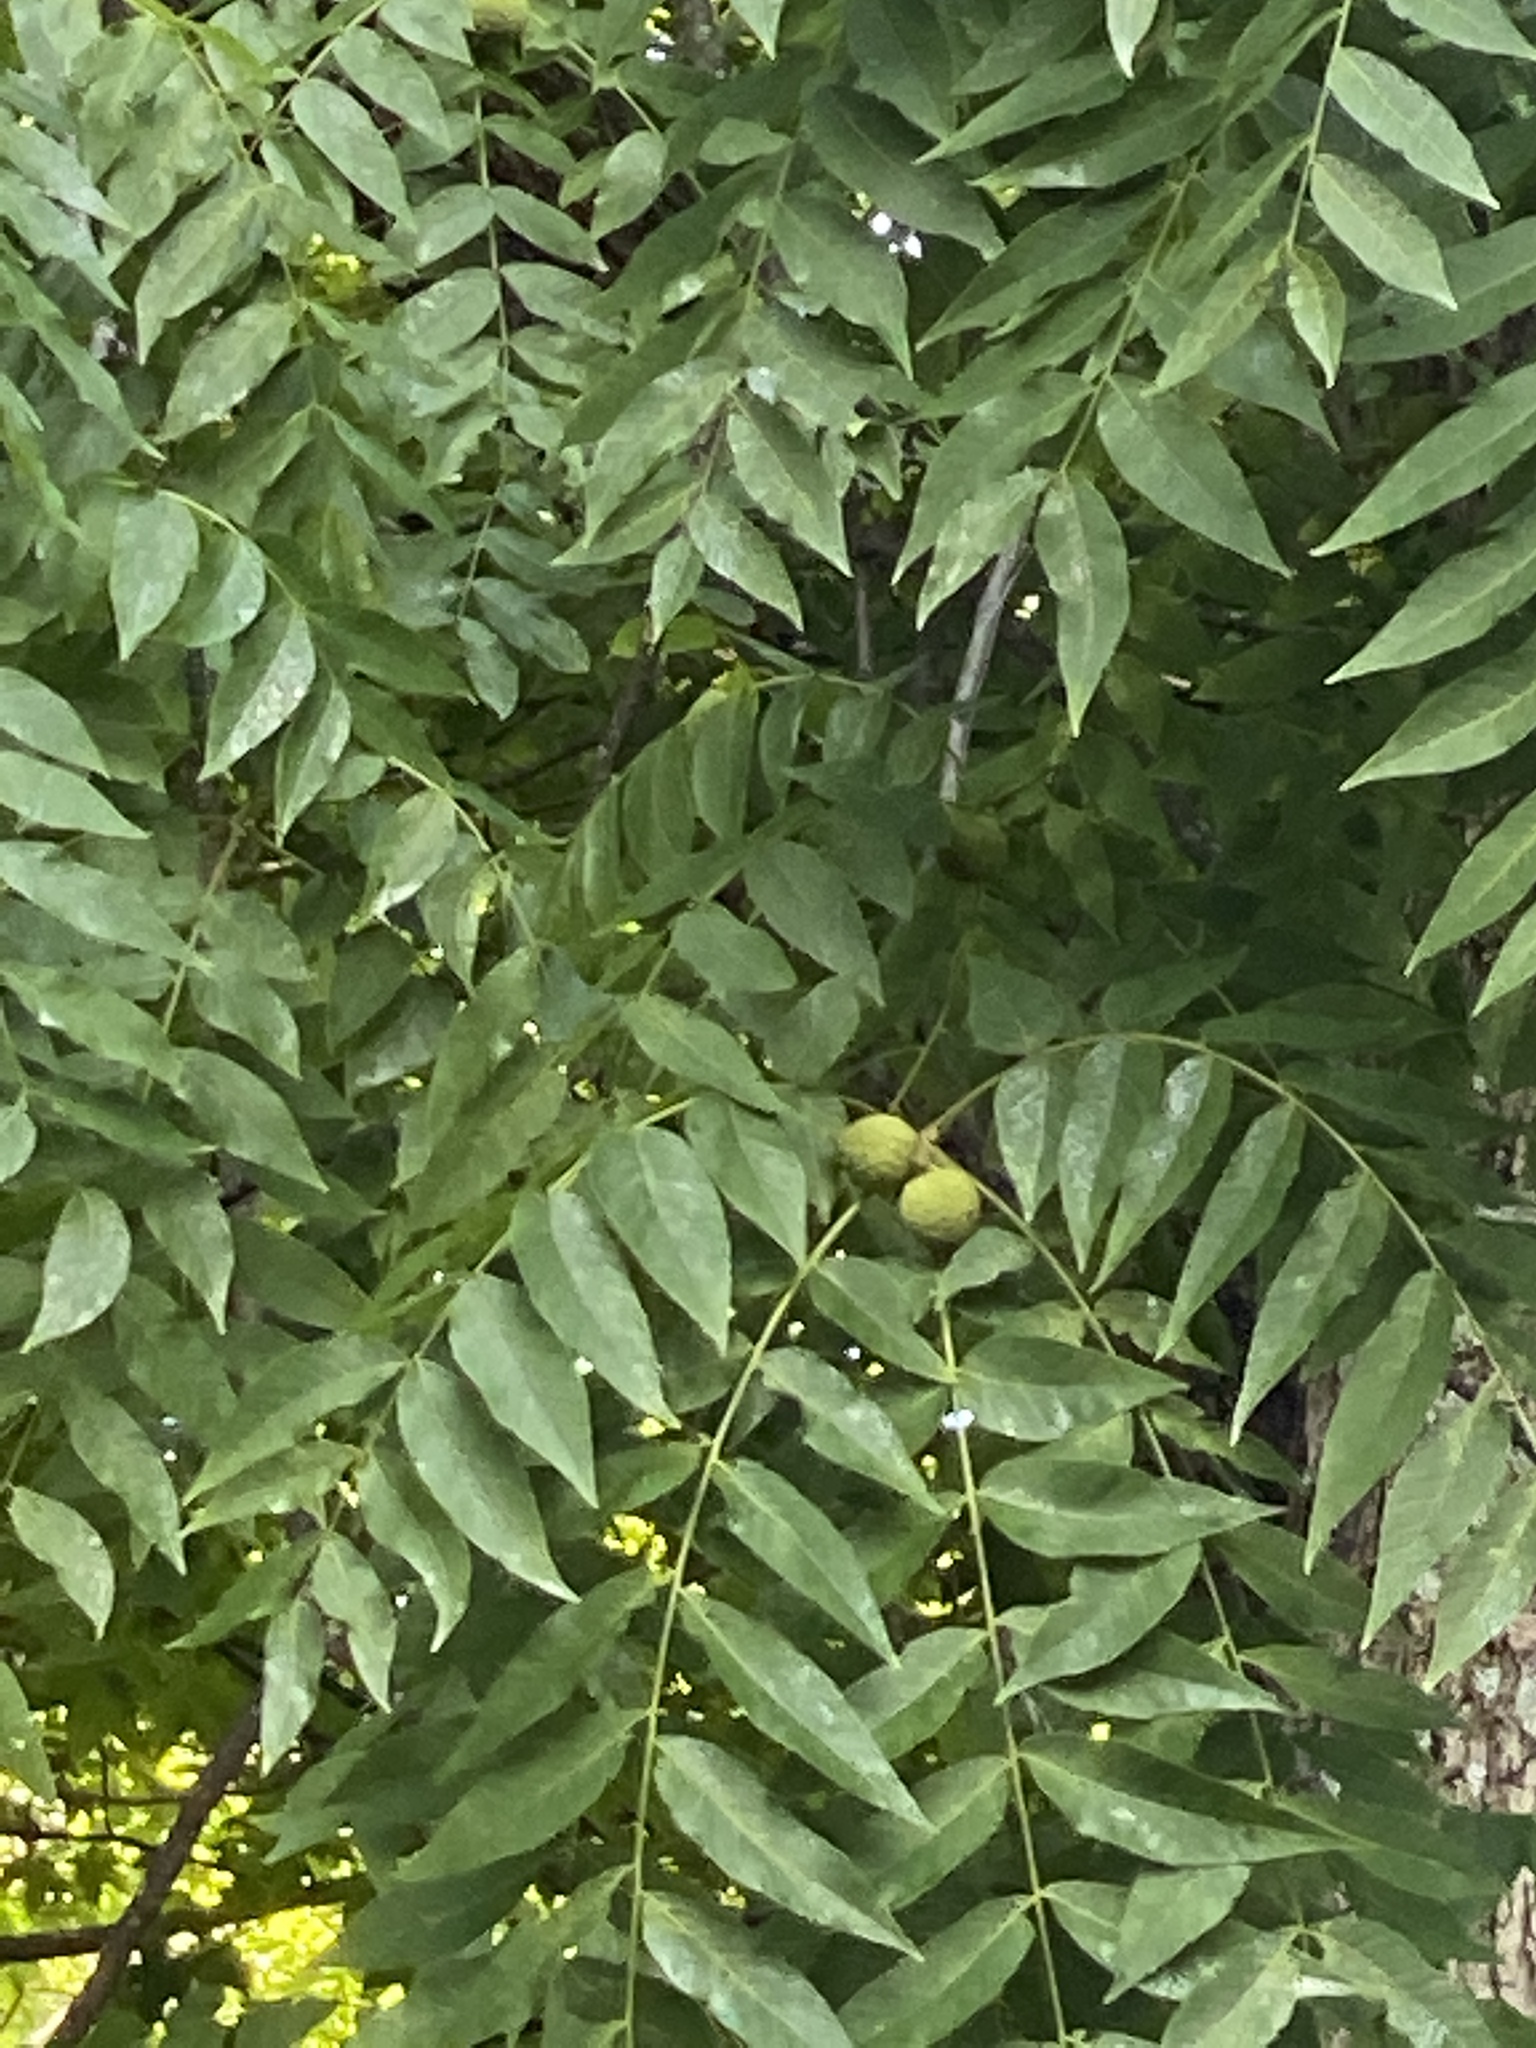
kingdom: Plantae
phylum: Tracheophyta
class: Magnoliopsida
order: Fagales
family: Juglandaceae
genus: Juglans
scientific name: Juglans nigra
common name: Black walnut
